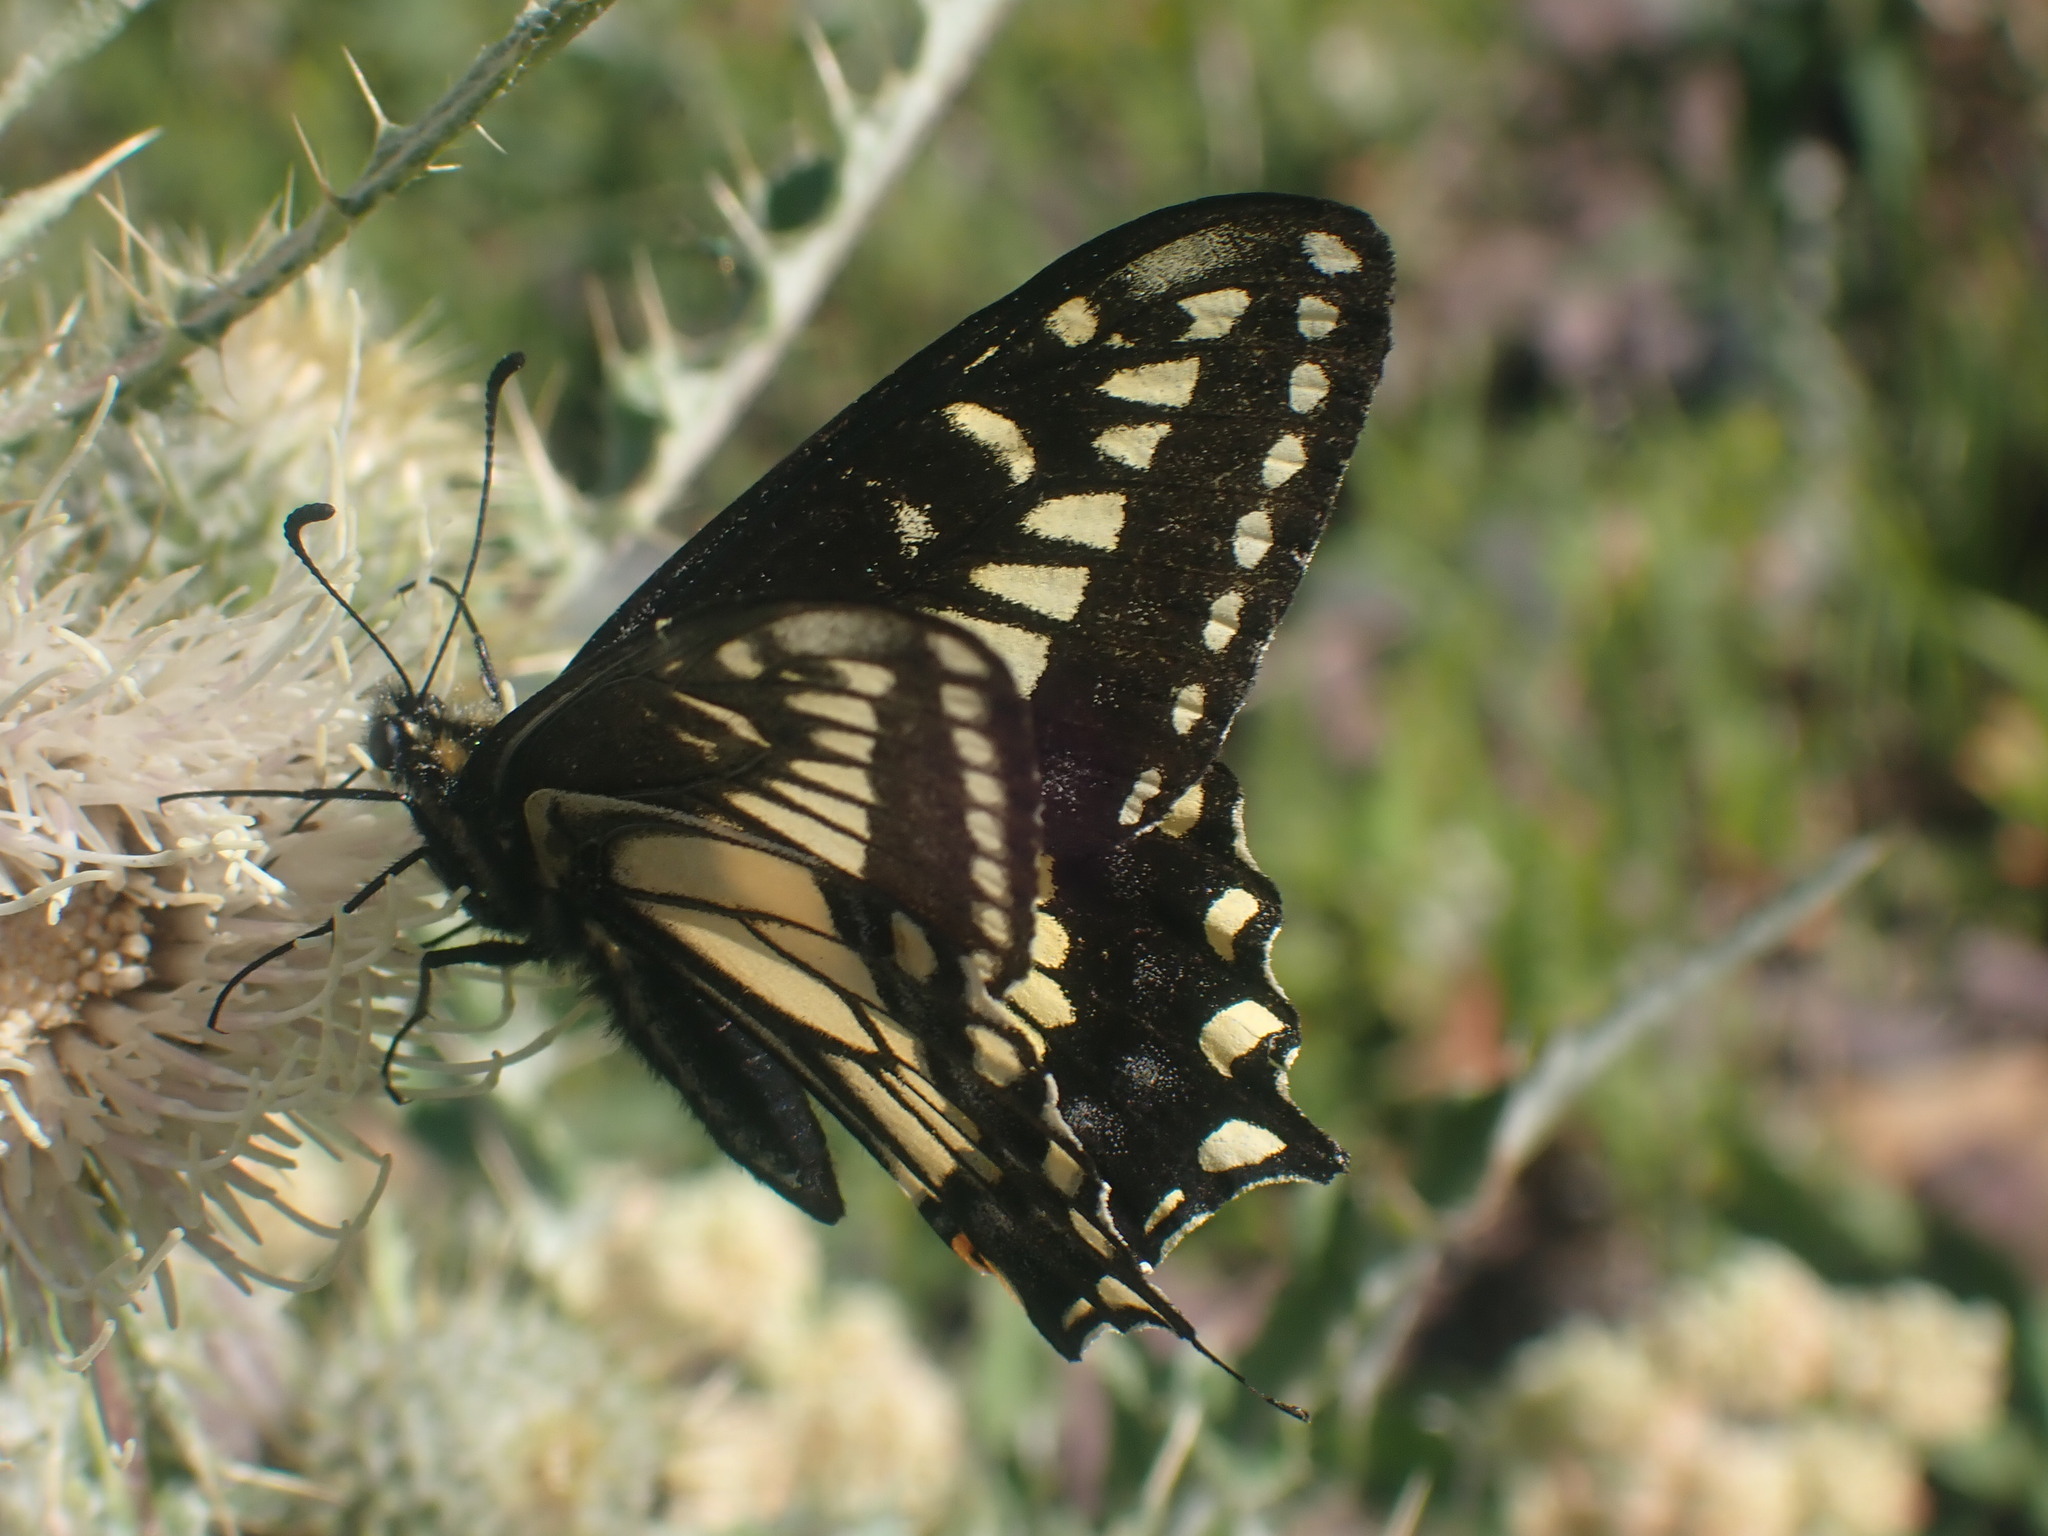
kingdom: Animalia
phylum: Arthropoda
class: Insecta
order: Lepidoptera
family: Papilionidae
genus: Papilio
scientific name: Papilio zelicaon
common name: Anise swallowtail
